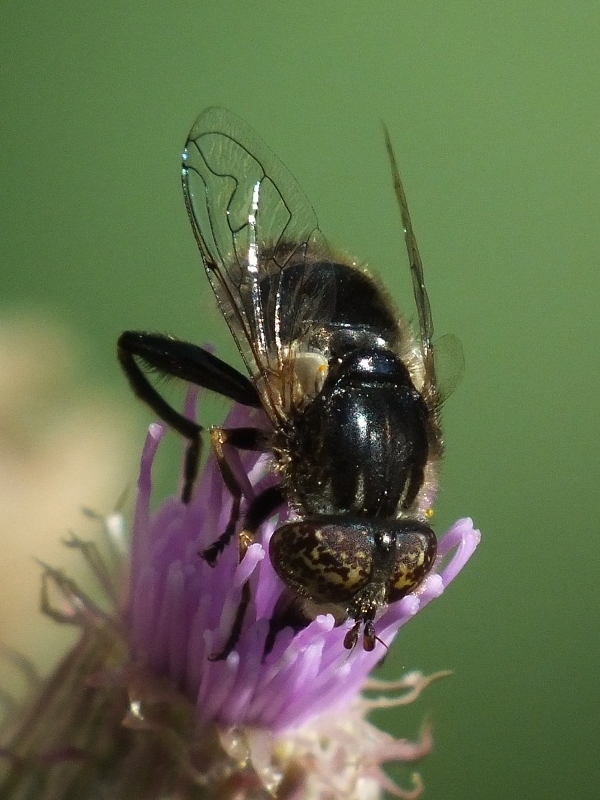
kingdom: Animalia
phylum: Arthropoda
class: Insecta
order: Diptera
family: Syrphidae
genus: Eristalinus
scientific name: Eristalinus sepulchralis
